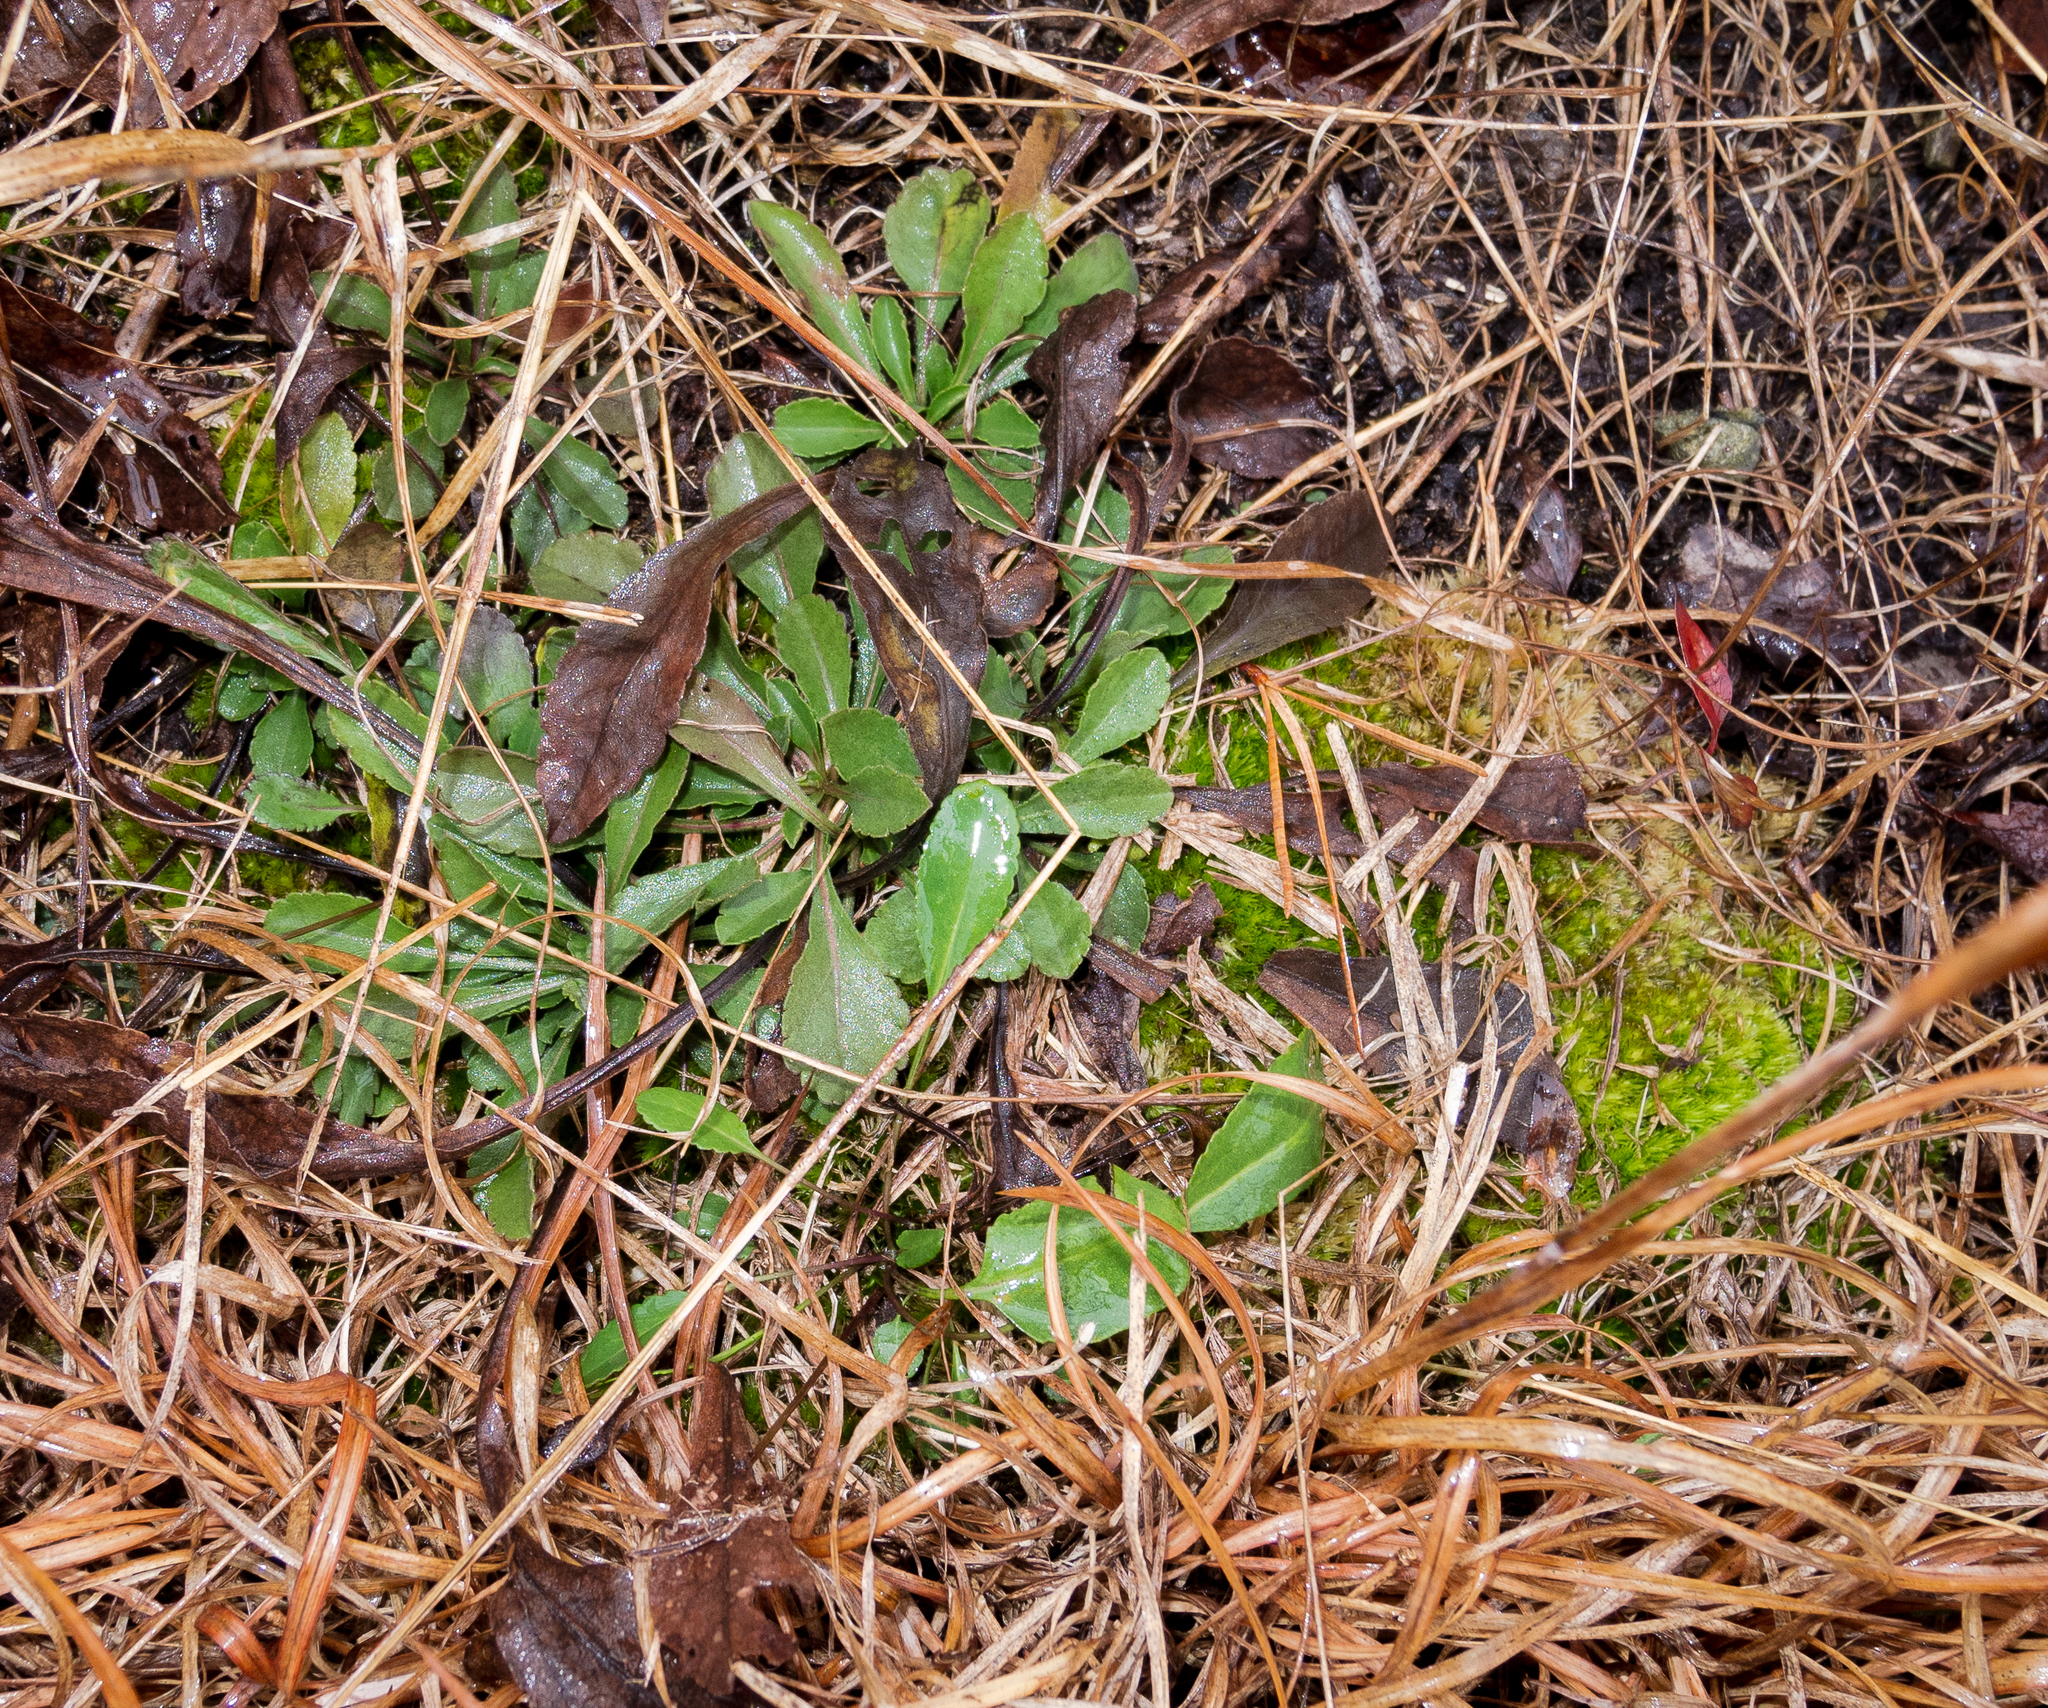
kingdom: Plantae
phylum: Tracheophyta
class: Magnoliopsida
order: Asterales
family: Asteraceae
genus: Solidago
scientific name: Solidago nemoralis
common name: Grey goldenrod
